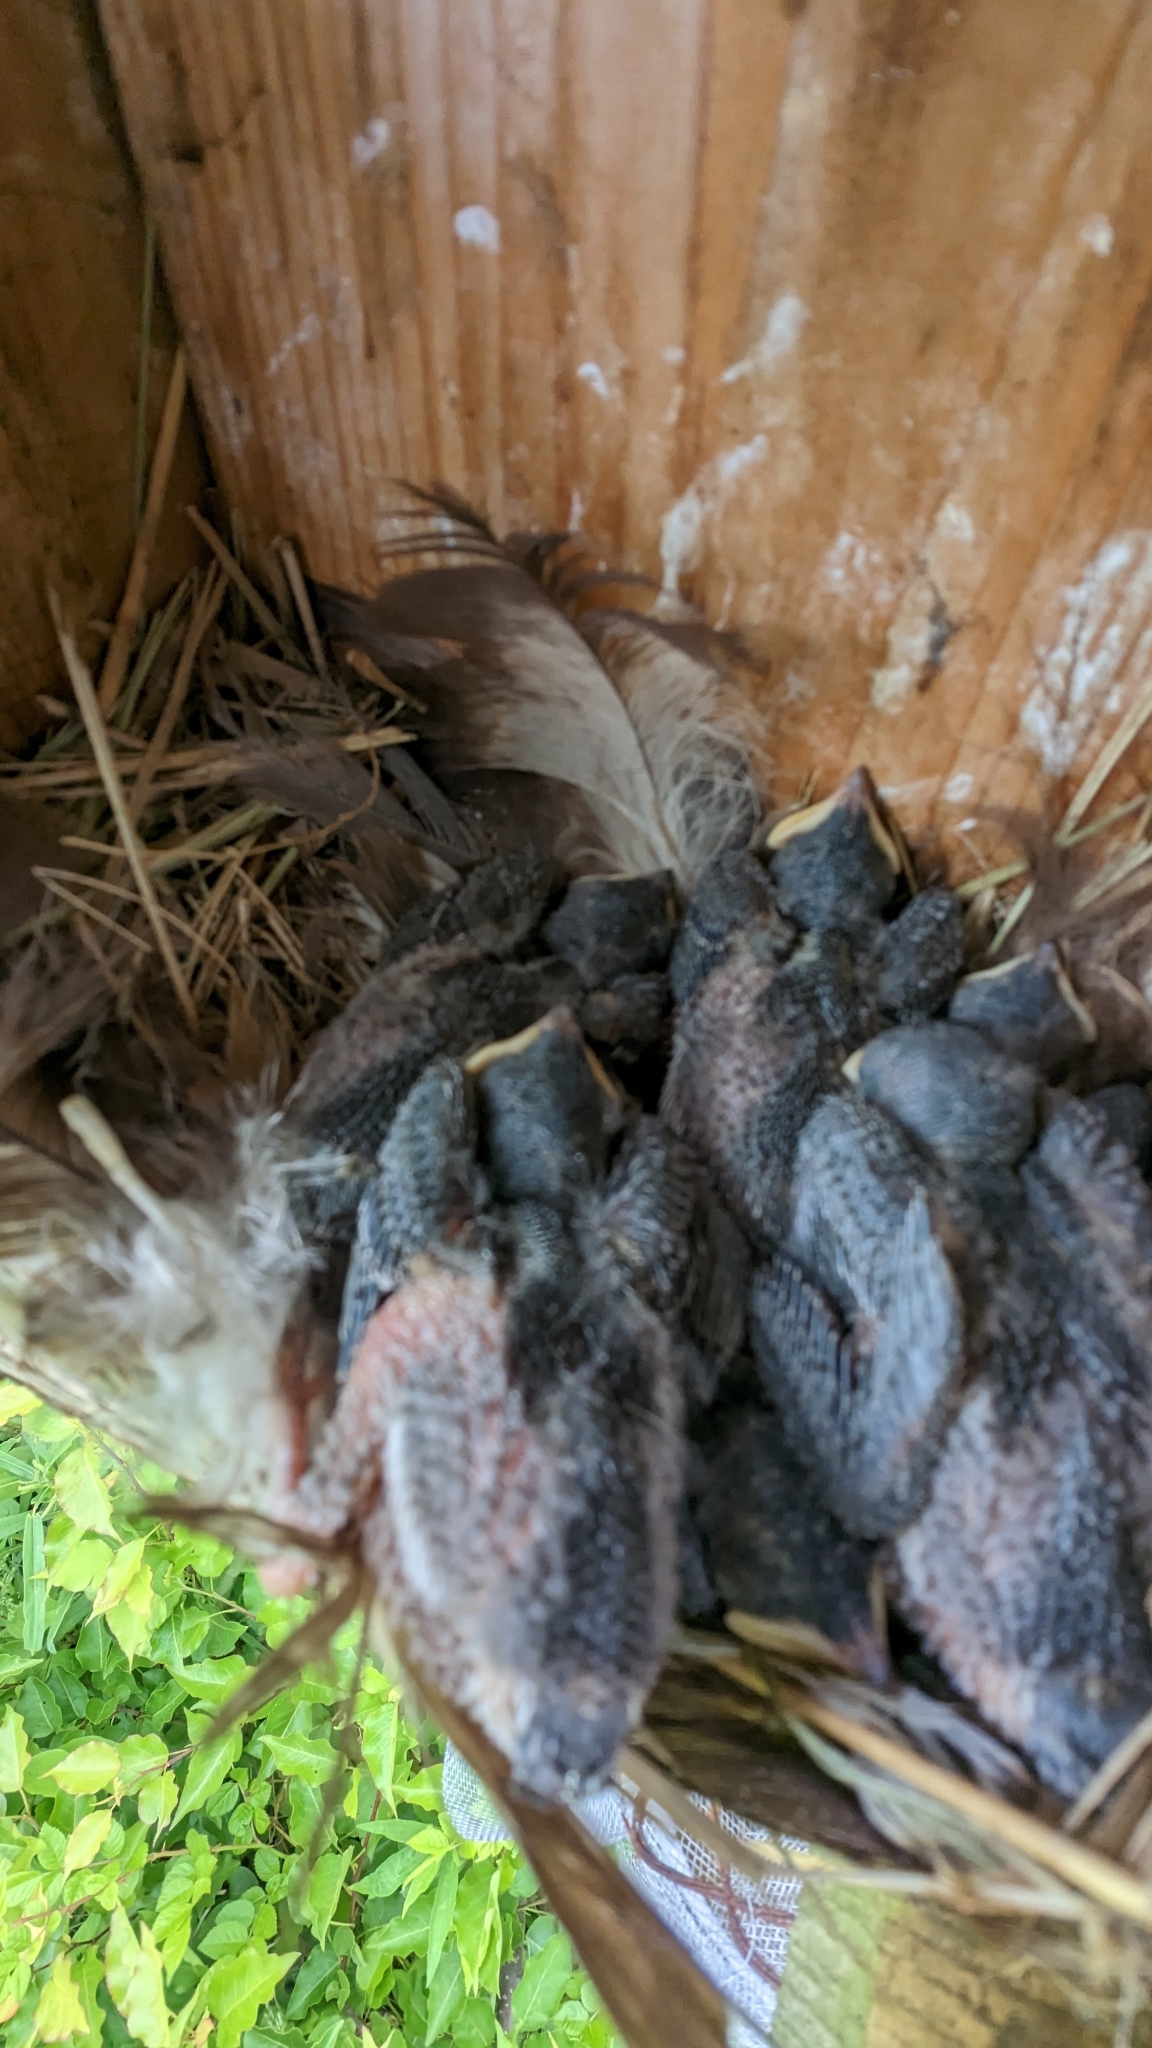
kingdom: Animalia
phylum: Chordata
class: Aves
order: Passeriformes
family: Hirundinidae
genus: Tachycineta
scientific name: Tachycineta bicolor
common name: Tree swallow
